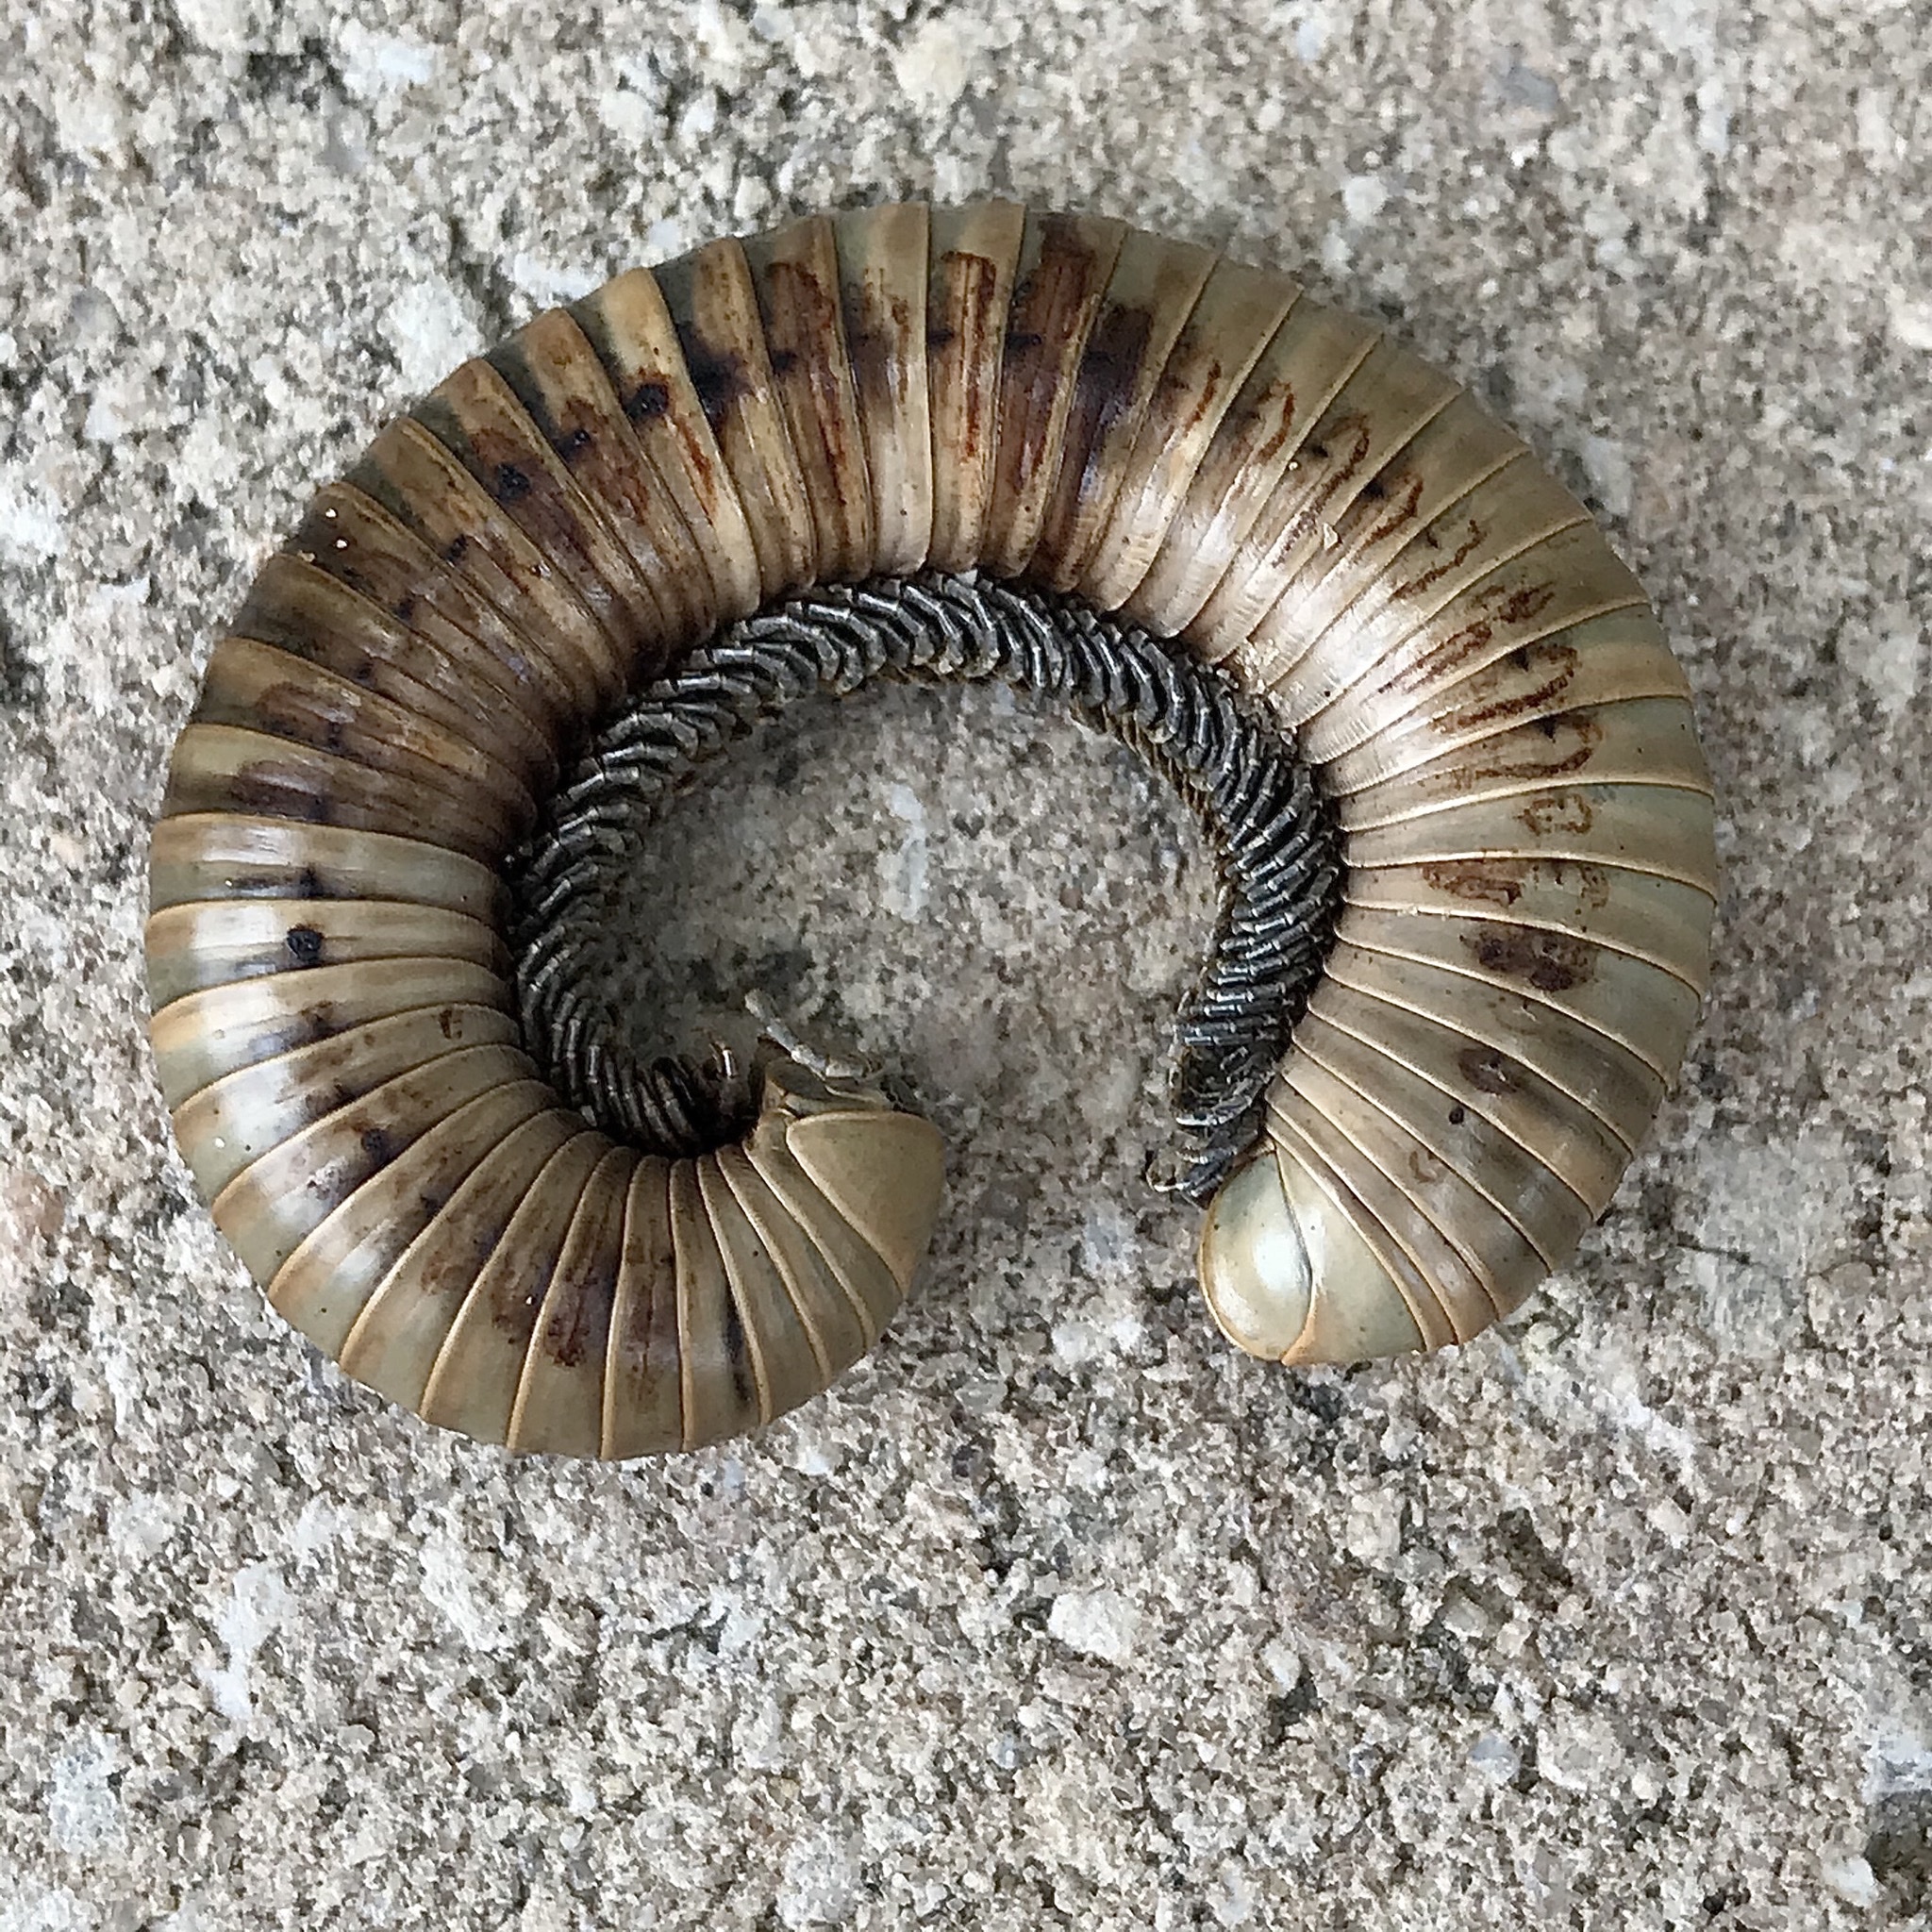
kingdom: Animalia
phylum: Arthropoda
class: Diplopoda
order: Spirobolida
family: Spirobolidae
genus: Narceus
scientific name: Narceus gordanus
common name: Grayish-green millipede
